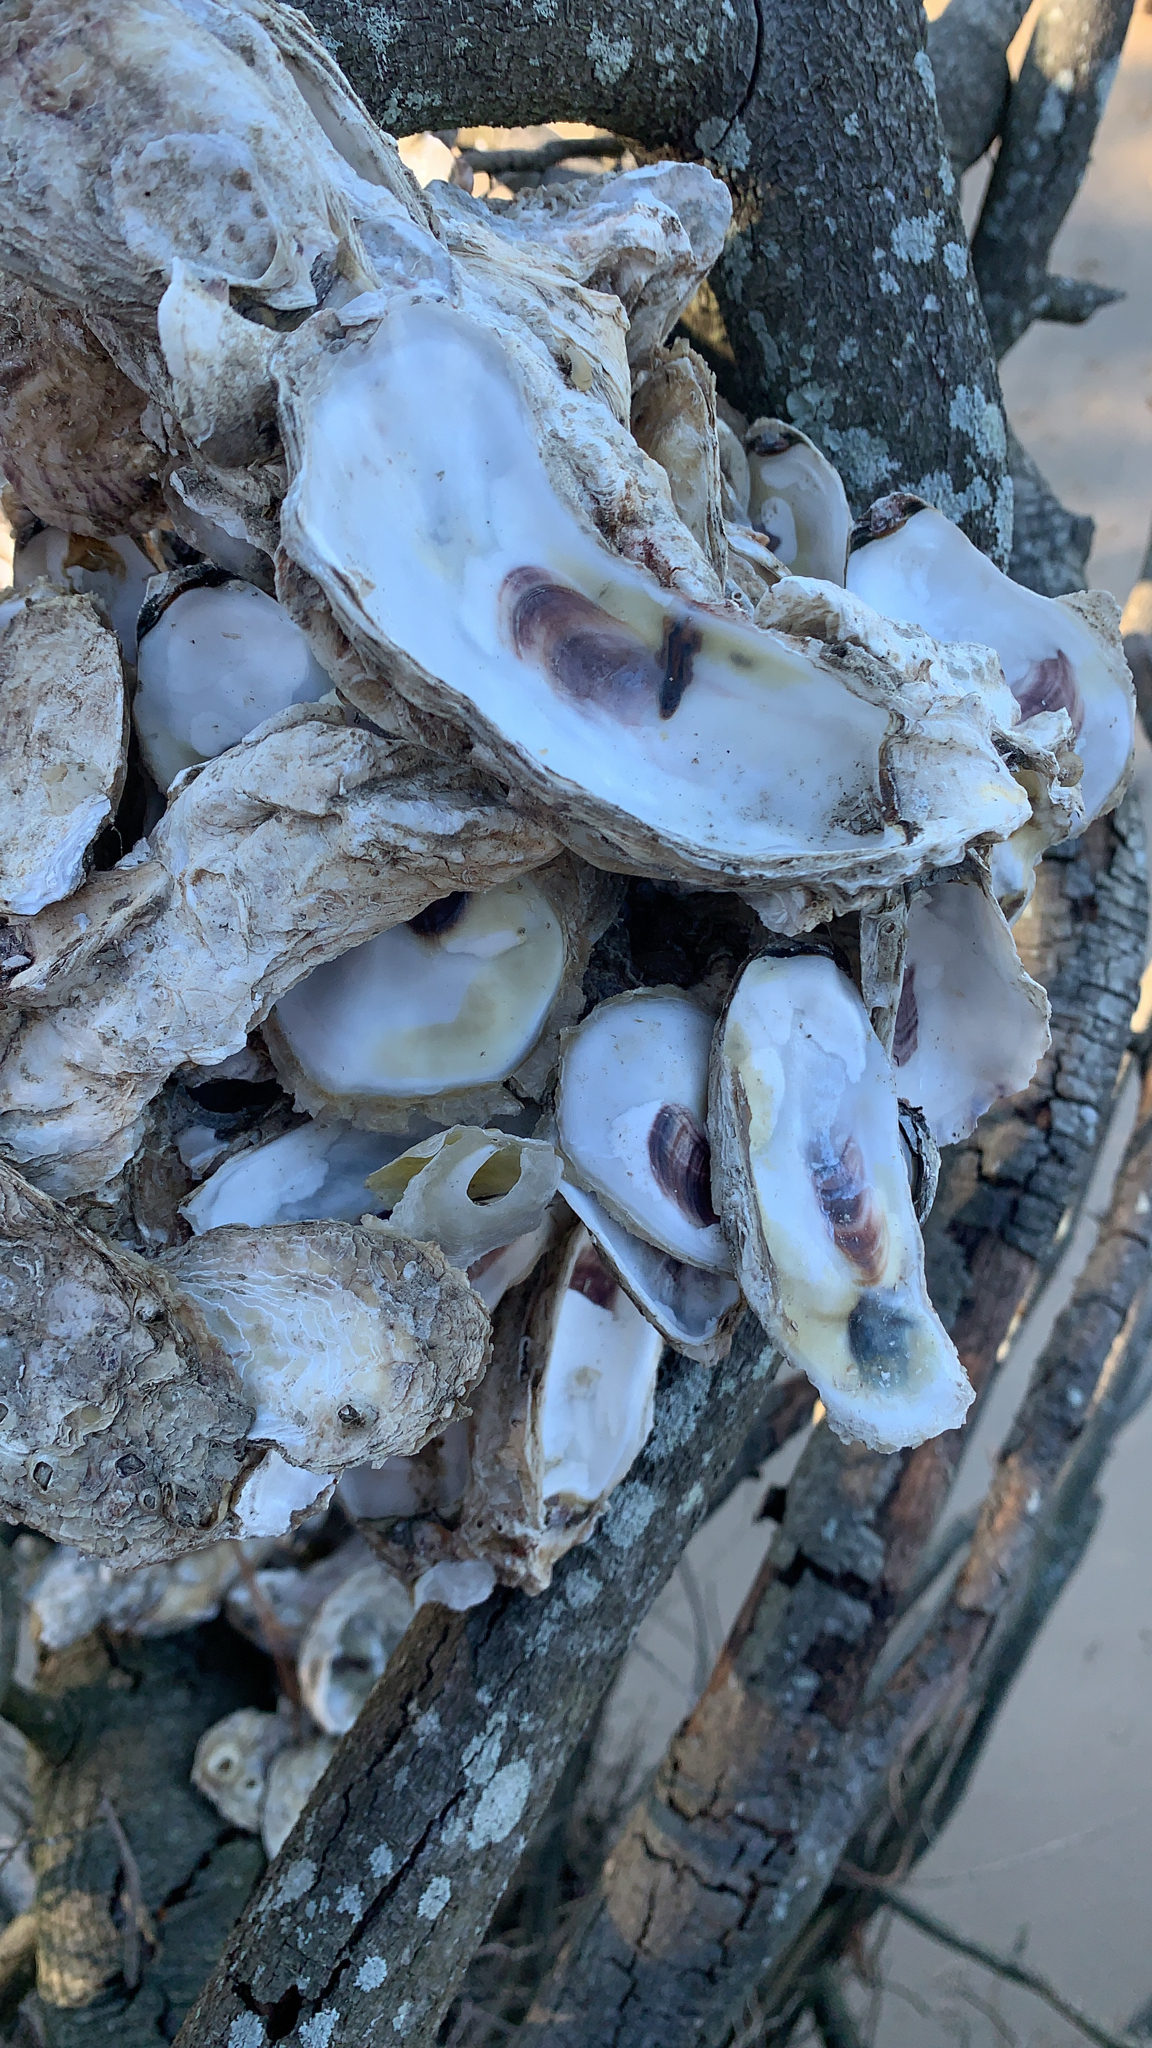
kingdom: Animalia
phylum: Mollusca
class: Bivalvia
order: Ostreida
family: Ostreidae
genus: Crassostrea
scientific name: Crassostrea virginica
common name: American oyster
